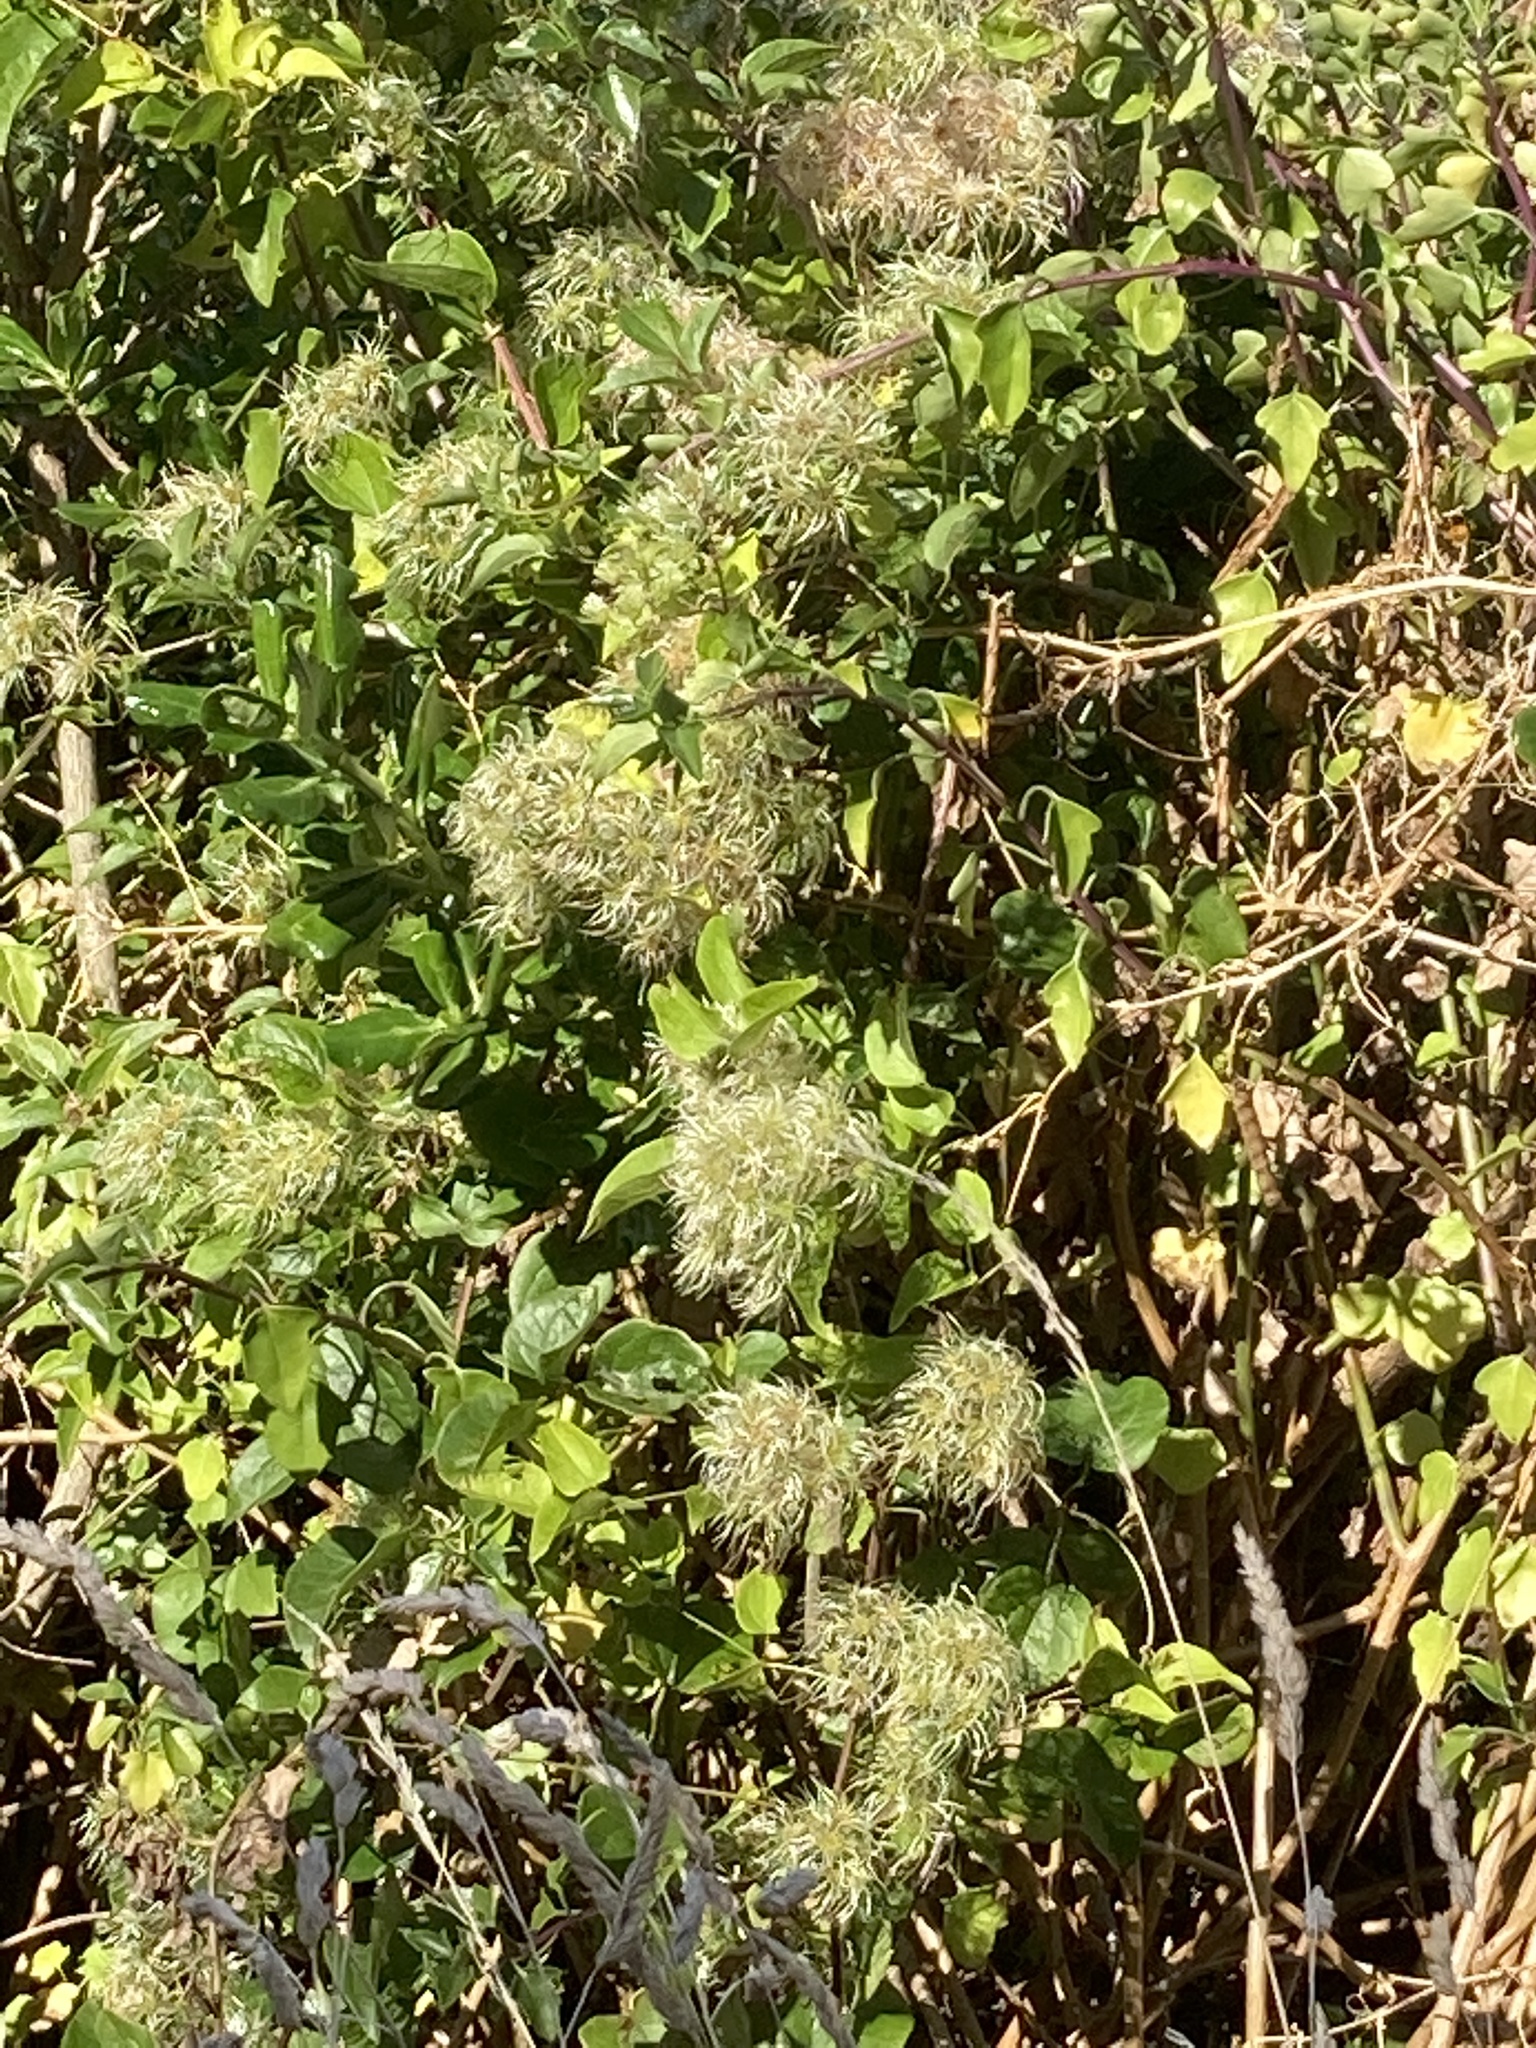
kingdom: Plantae
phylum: Tracheophyta
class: Magnoliopsida
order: Ranunculales
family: Ranunculaceae
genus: Clematis
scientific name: Clematis vitalba
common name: Evergreen clematis
